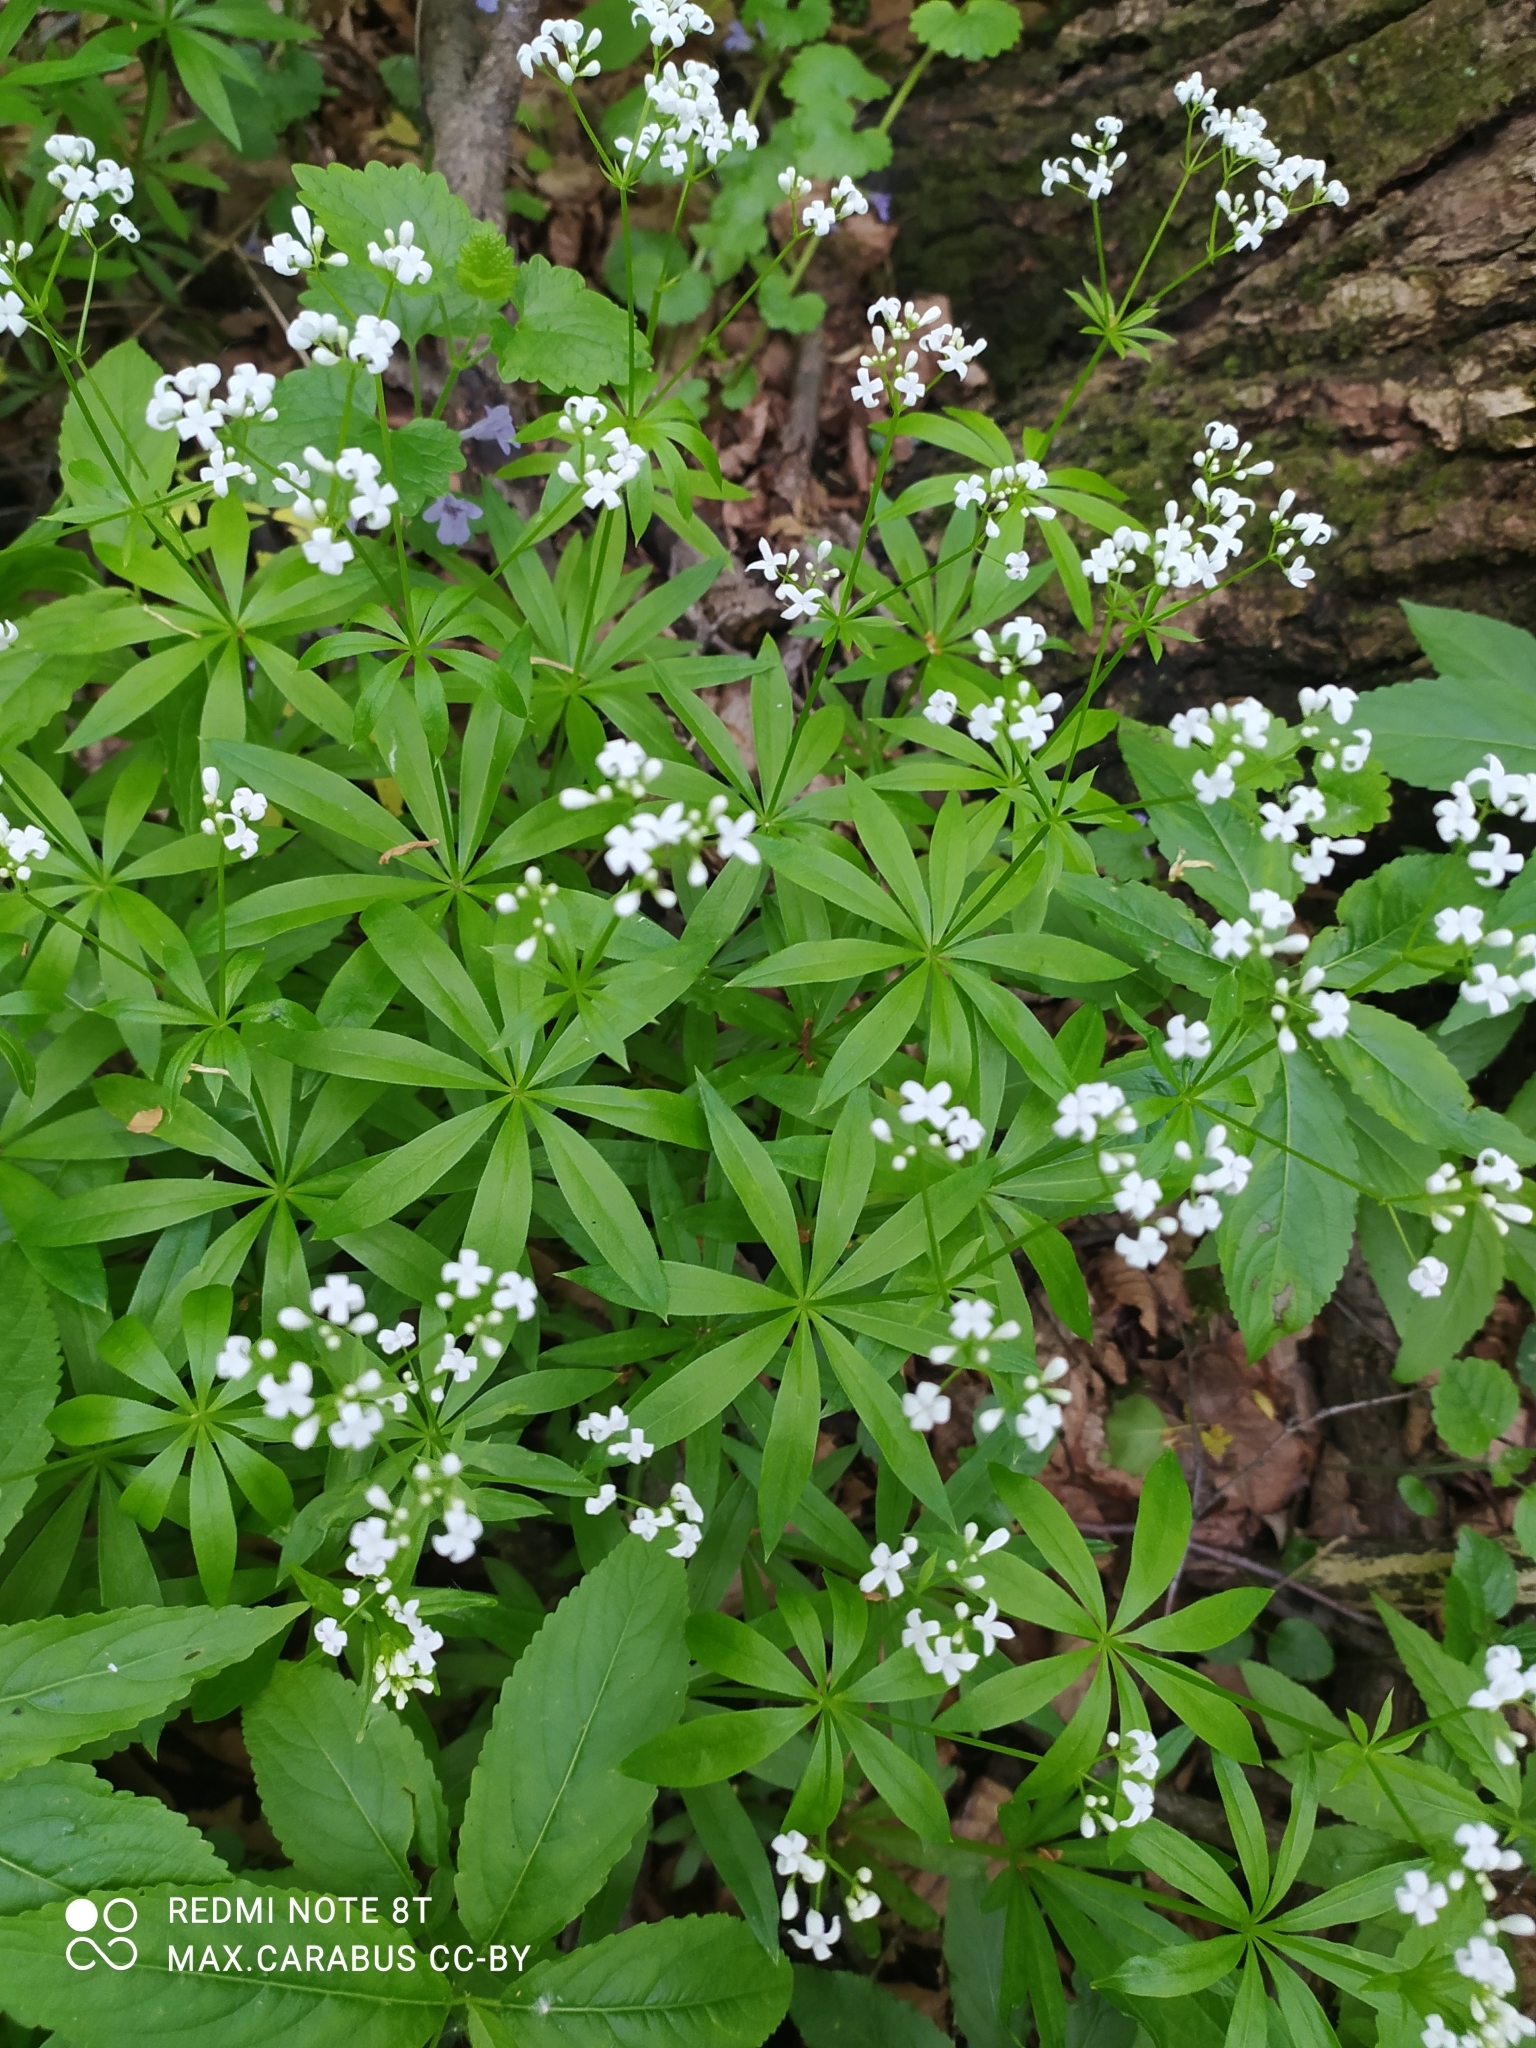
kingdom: Plantae
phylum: Tracheophyta
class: Magnoliopsida
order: Gentianales
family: Rubiaceae
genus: Galium
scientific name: Galium odoratum
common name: Sweet woodruff
